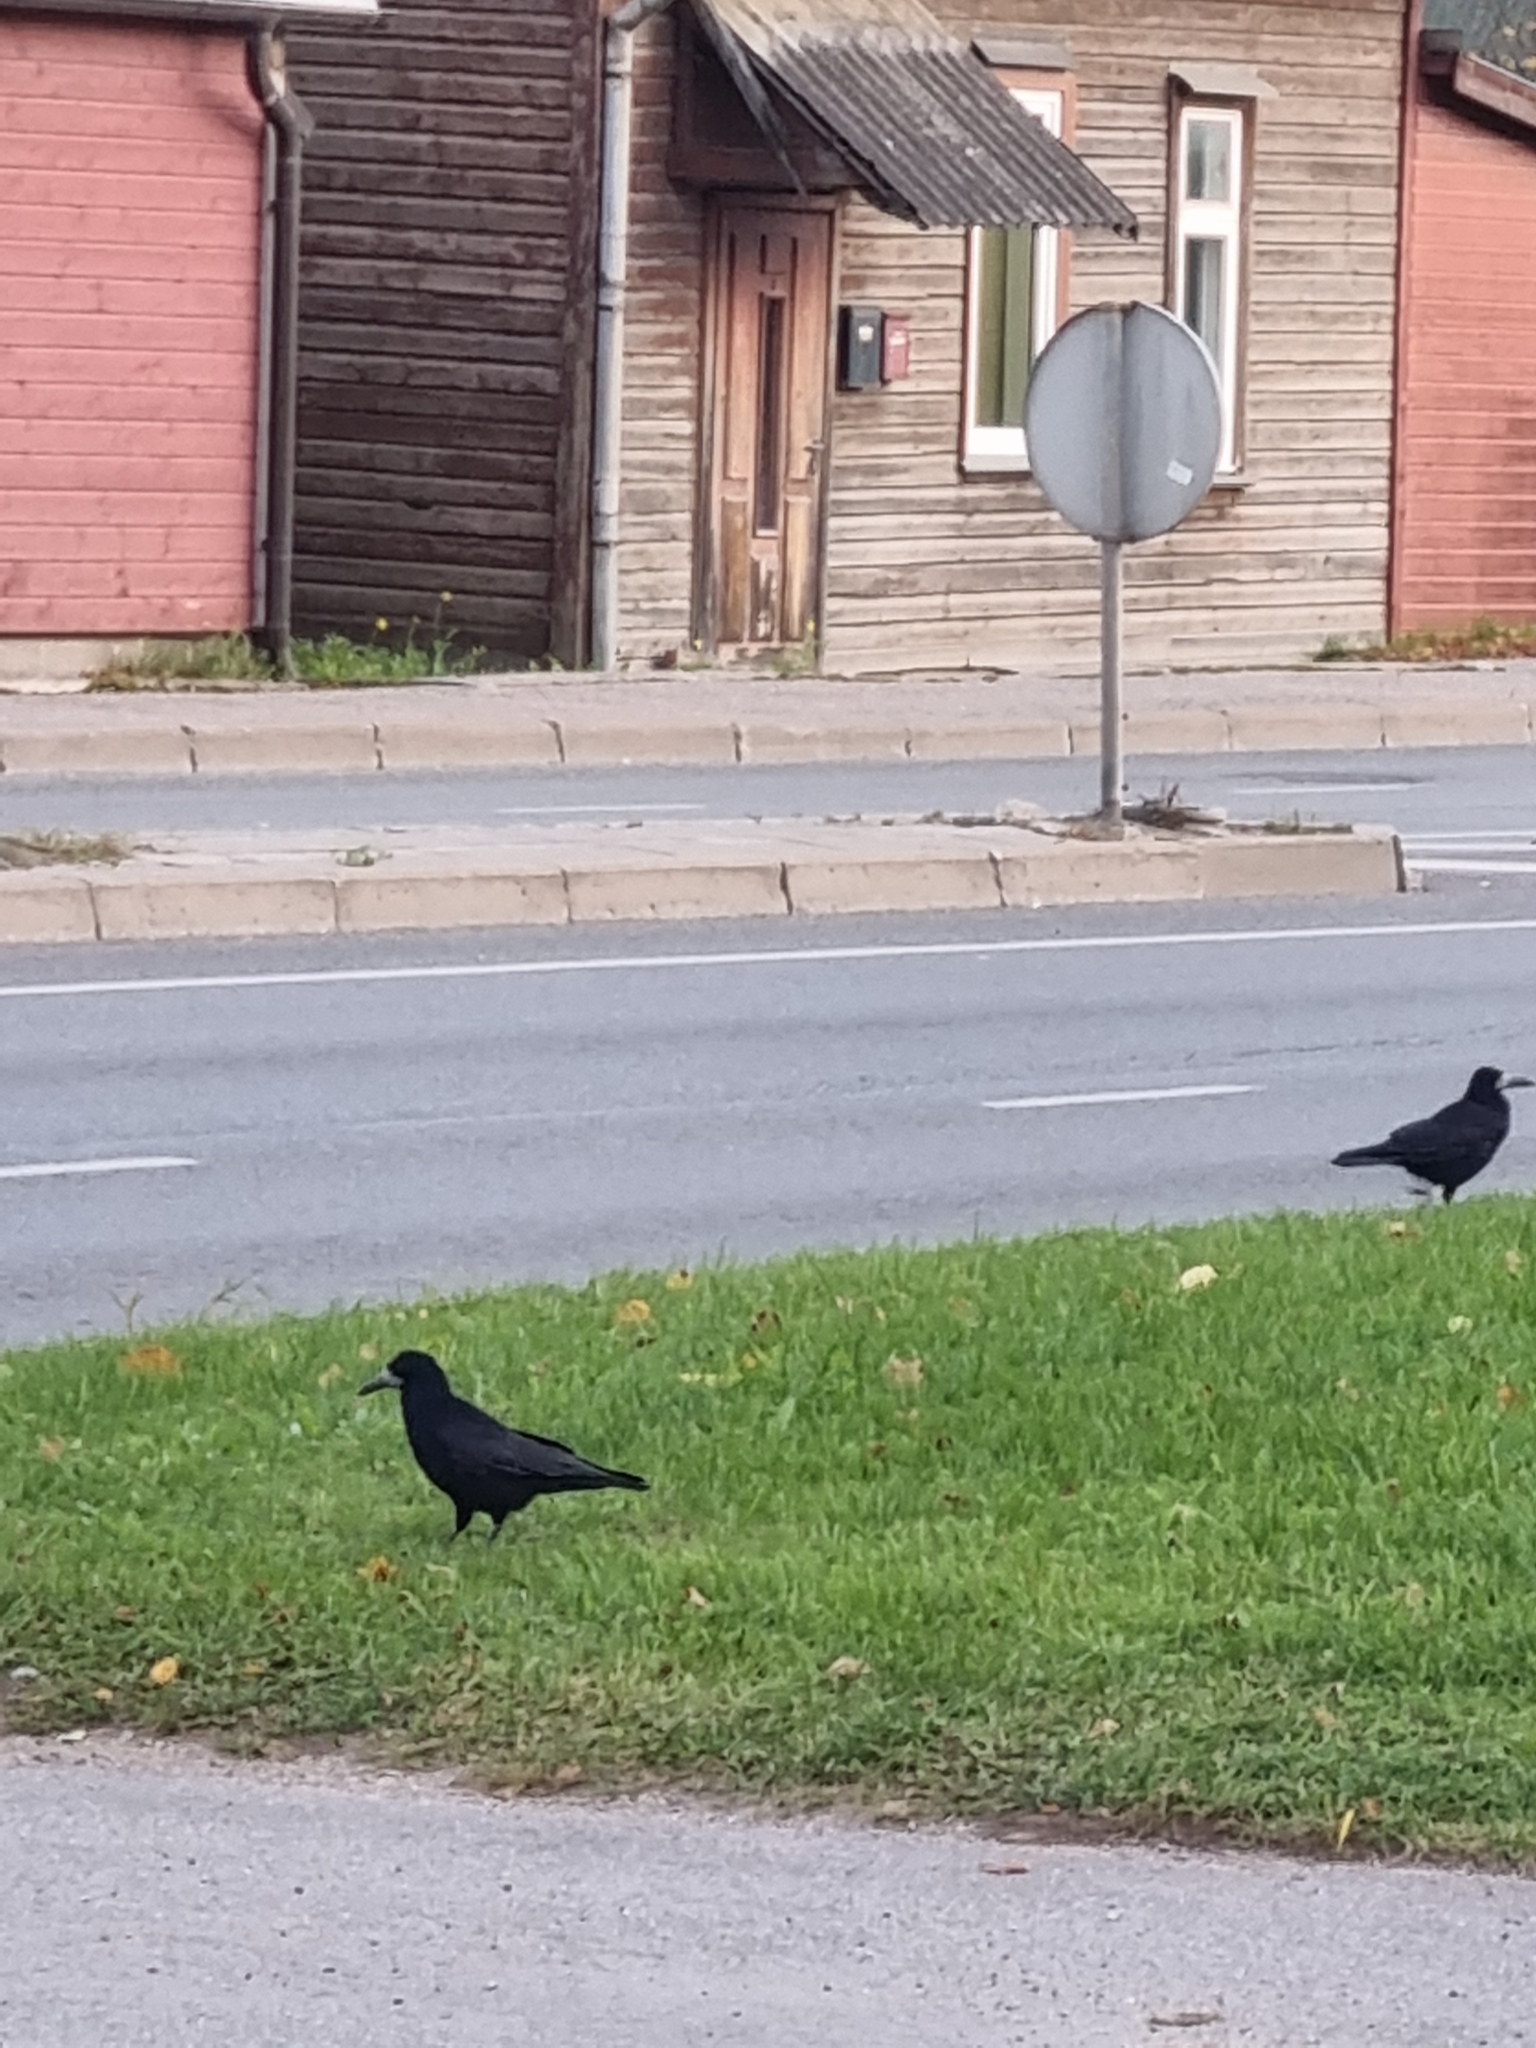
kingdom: Animalia
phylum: Chordata
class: Aves
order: Passeriformes
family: Corvidae
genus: Corvus
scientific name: Corvus frugilegus
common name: Rook
